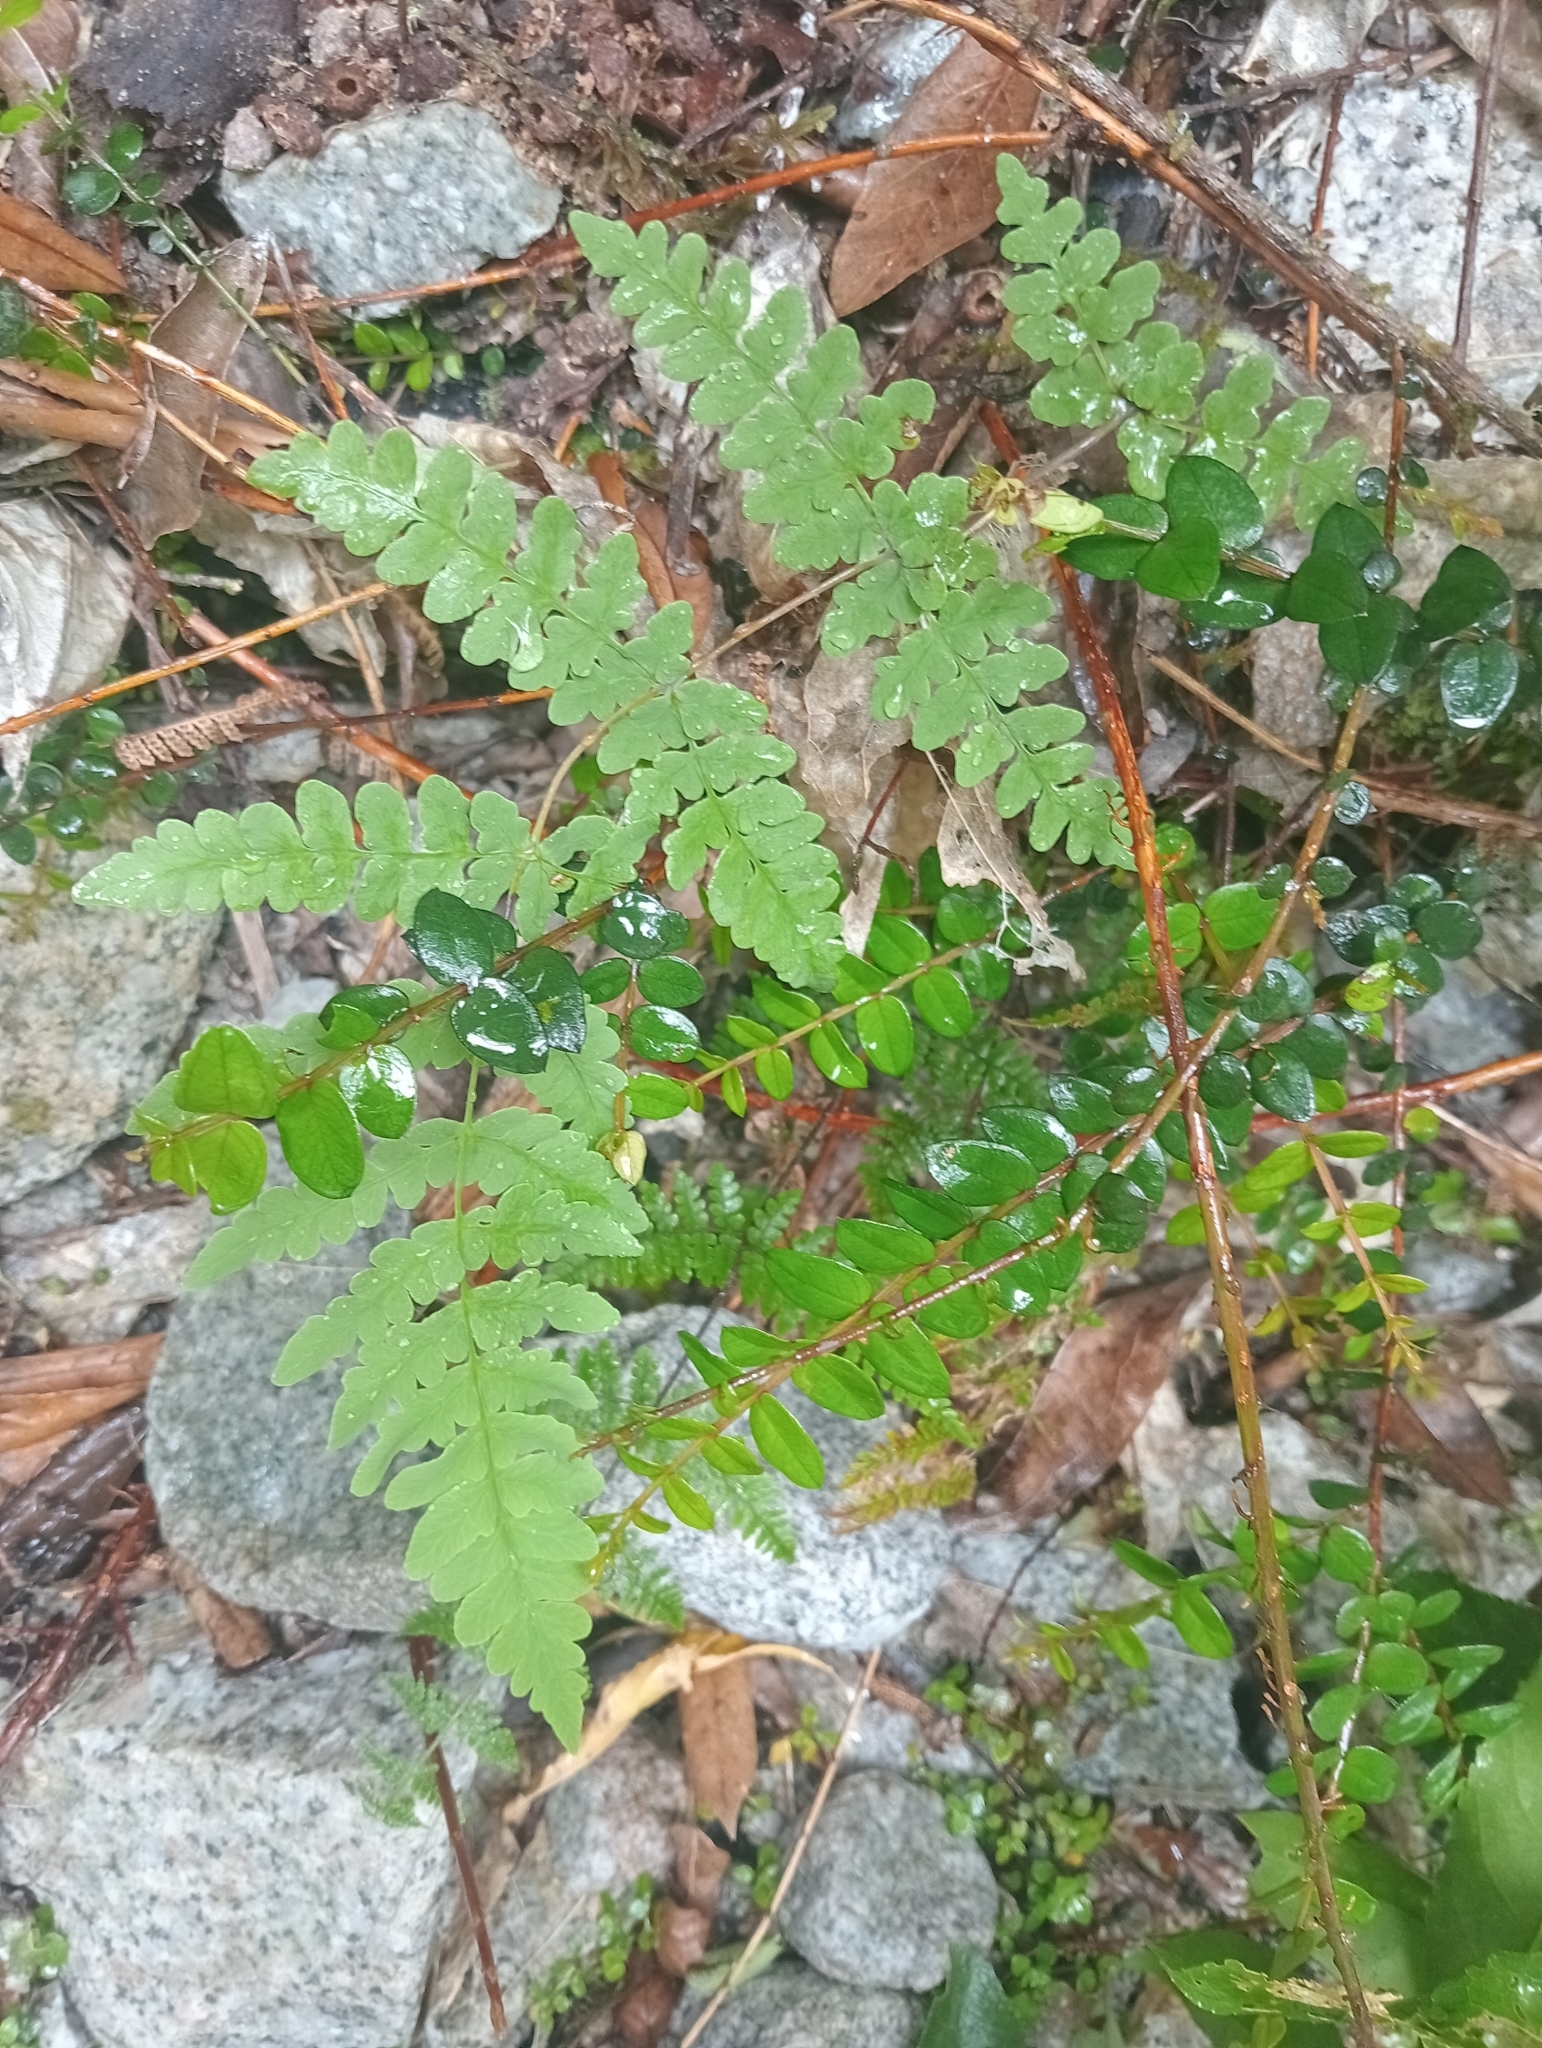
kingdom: Plantae
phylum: Tracheophyta
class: Polypodiopsida
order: Polypodiales
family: Dennstaedtiaceae
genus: Histiopteris
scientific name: Histiopteris incisa
